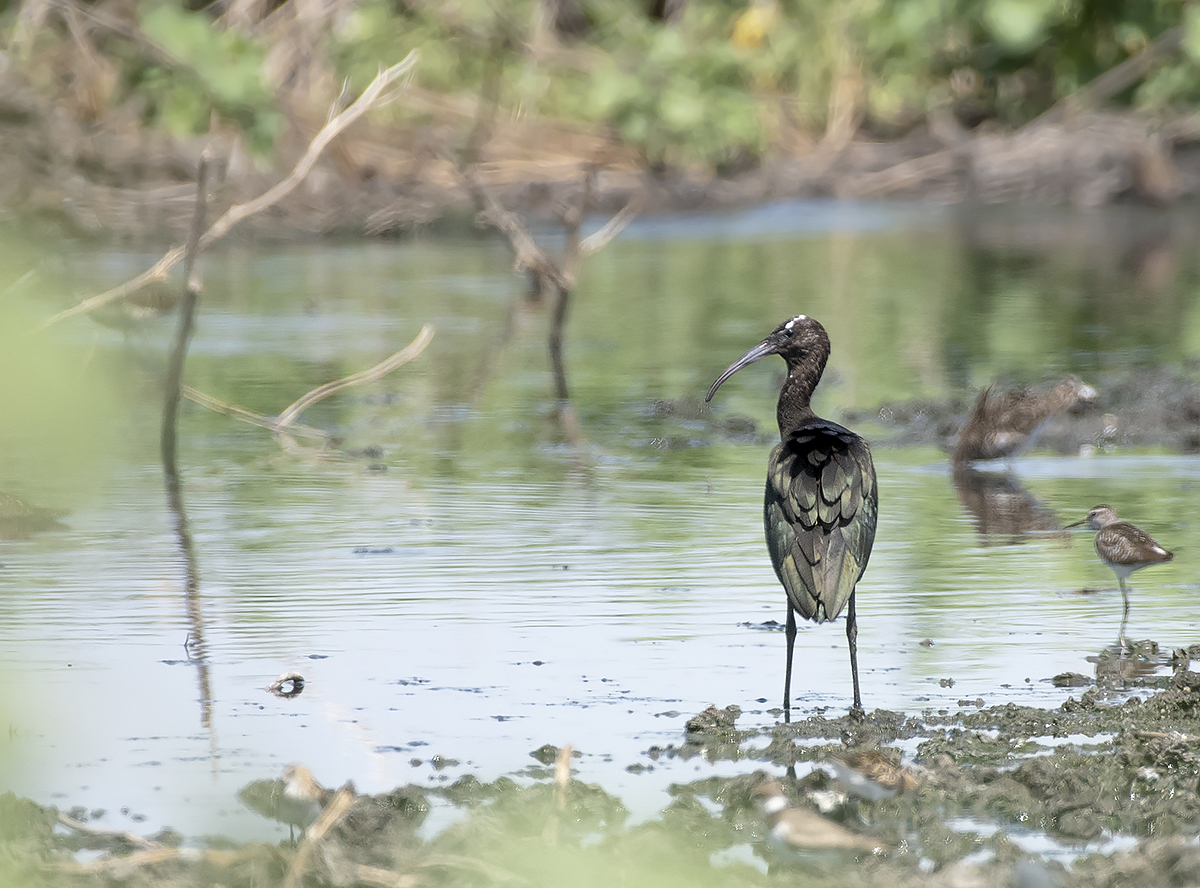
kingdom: Animalia
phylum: Chordata
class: Aves
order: Pelecaniformes
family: Threskiornithidae
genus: Plegadis
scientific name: Plegadis falcinellus
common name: Glossy ibis
